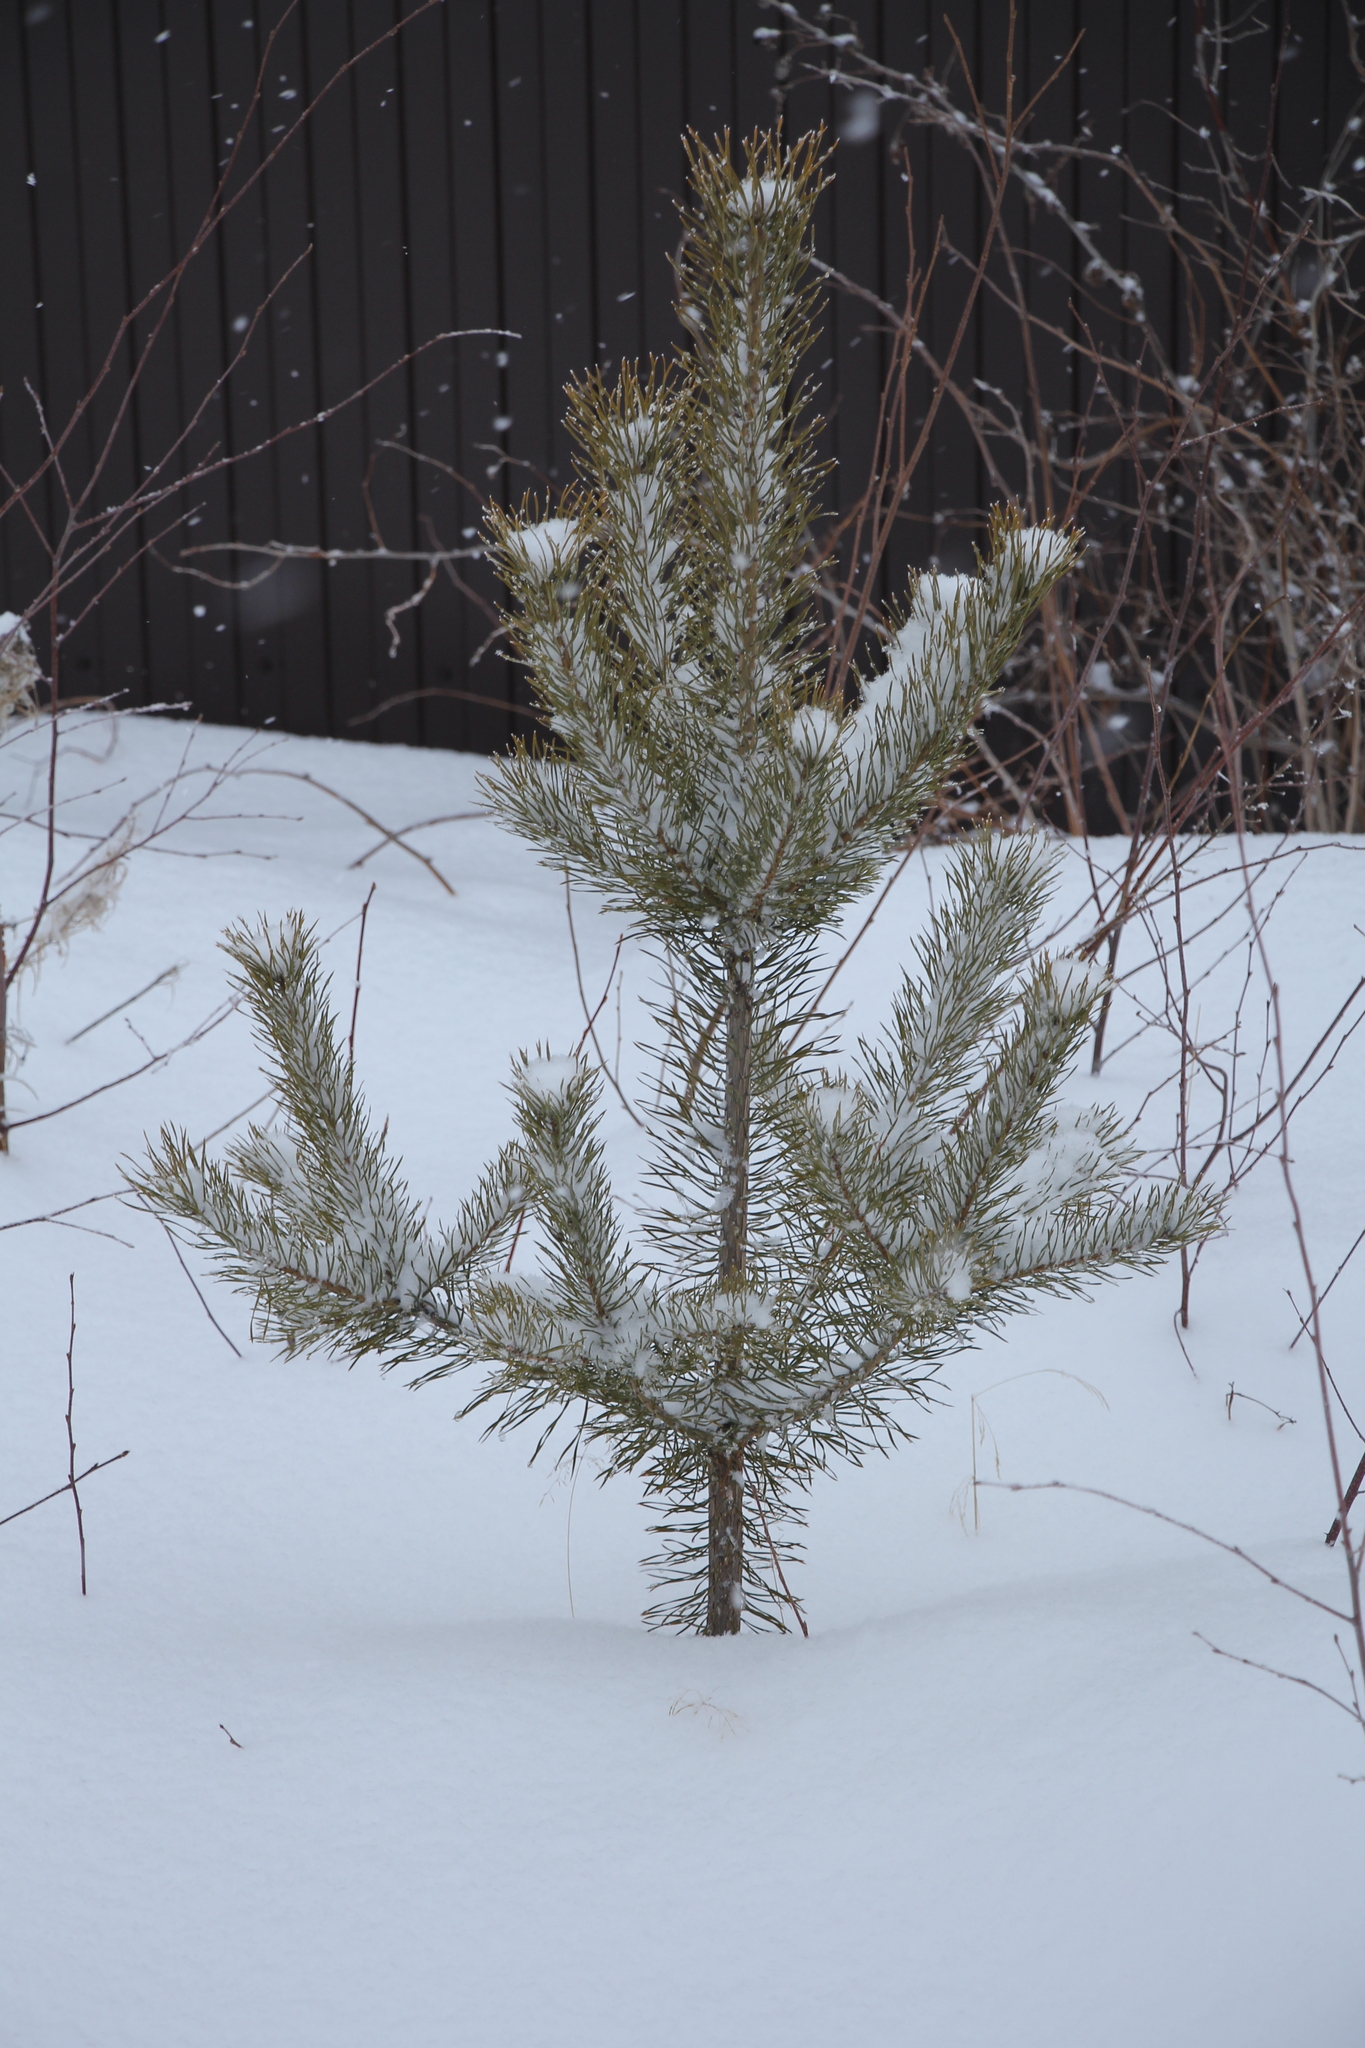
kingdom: Plantae
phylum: Tracheophyta
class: Pinopsida
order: Pinales
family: Pinaceae
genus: Pinus
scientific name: Pinus sylvestris
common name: Scots pine
